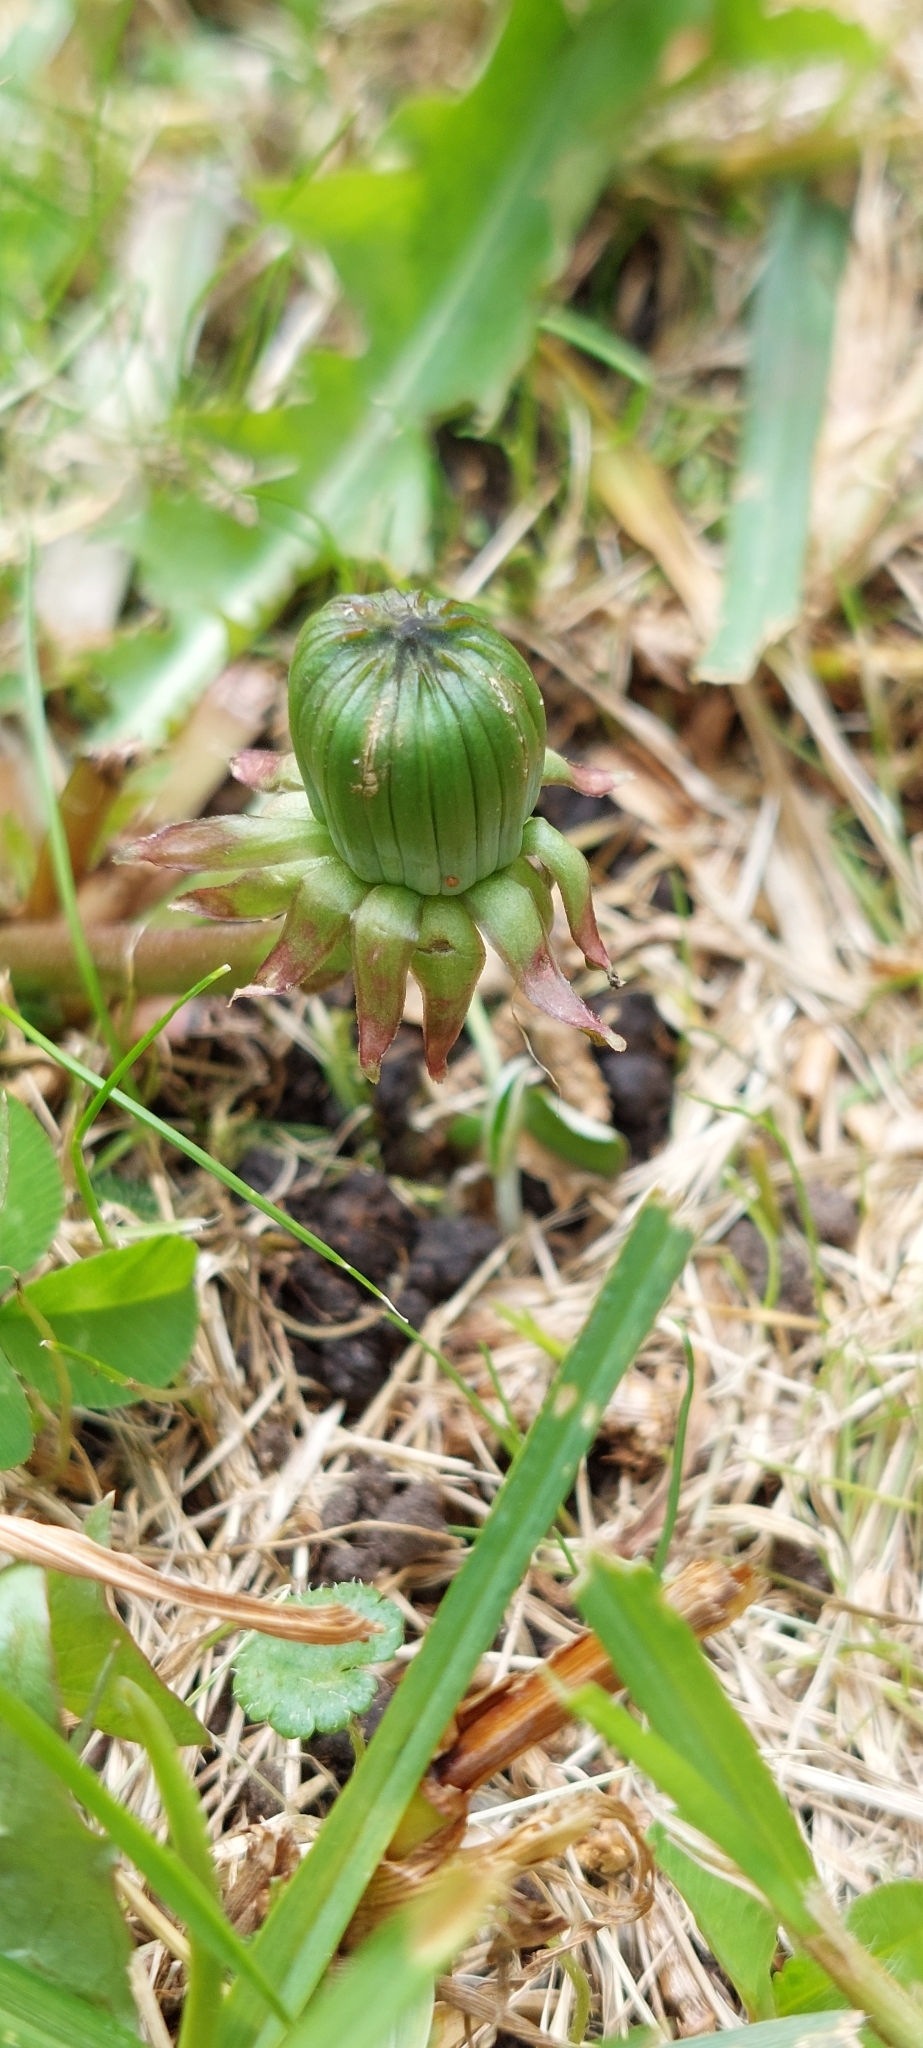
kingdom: Plantae
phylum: Tracheophyta
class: Magnoliopsida
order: Asterales
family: Asteraceae
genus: Taraxacum
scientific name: Taraxacum
